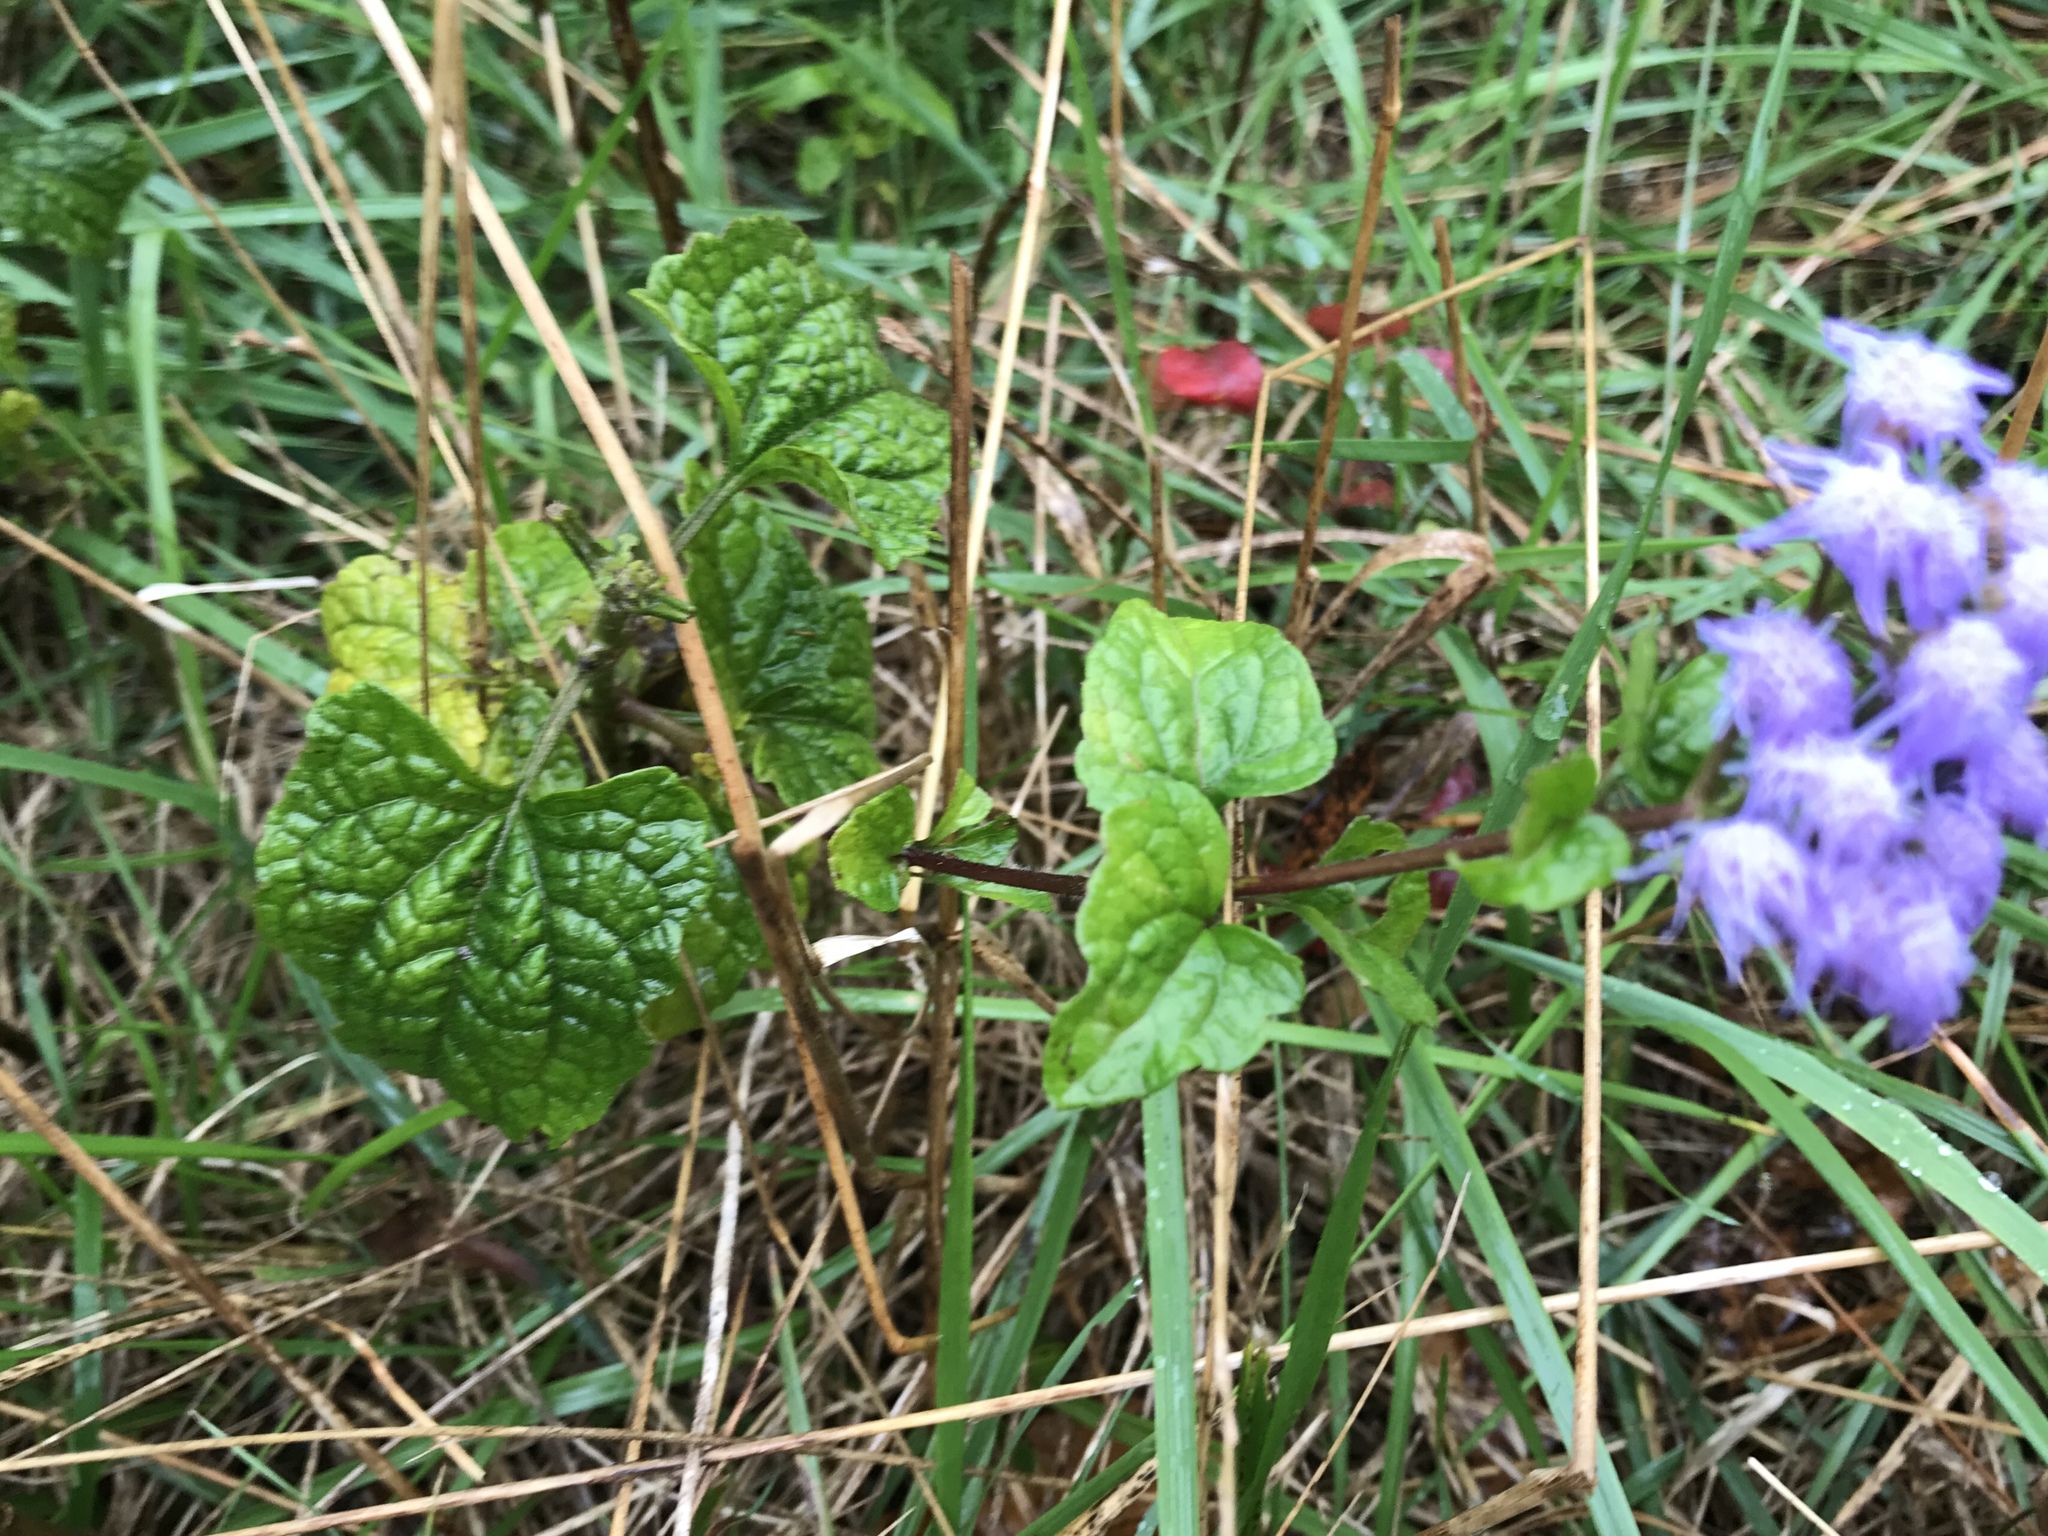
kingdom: Plantae
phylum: Tracheophyta
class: Magnoliopsida
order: Asterales
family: Asteraceae
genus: Conoclinium
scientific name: Conoclinium coelestinum
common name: Blue mistflower
